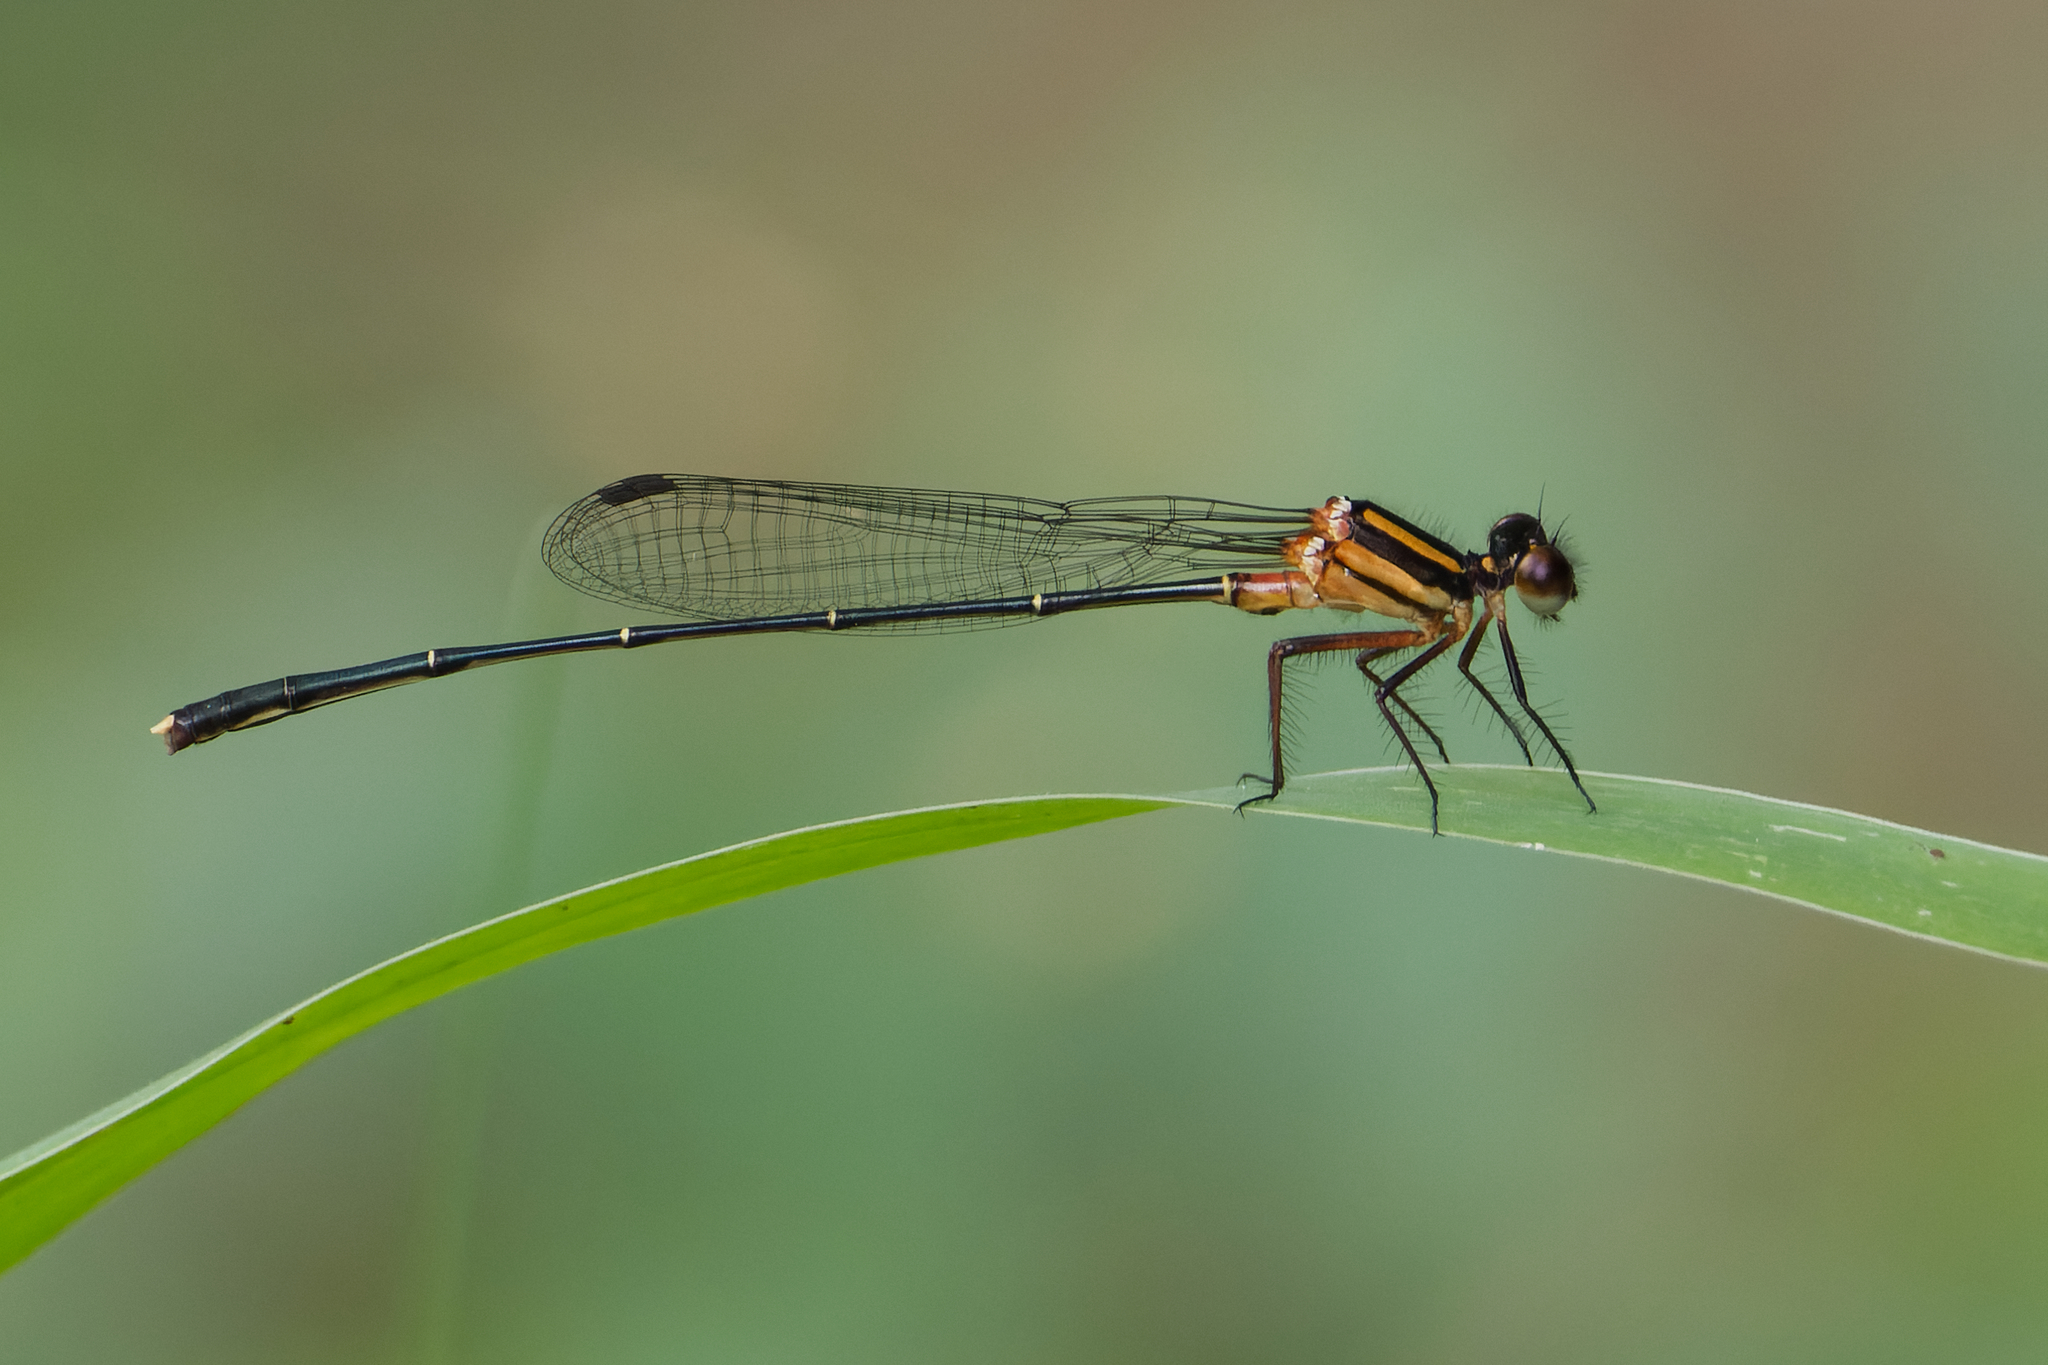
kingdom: Animalia
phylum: Arthropoda
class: Insecta
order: Odonata
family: Platycnemididae
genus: Nososticta
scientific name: Nososticta solida
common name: Orange threadtail
